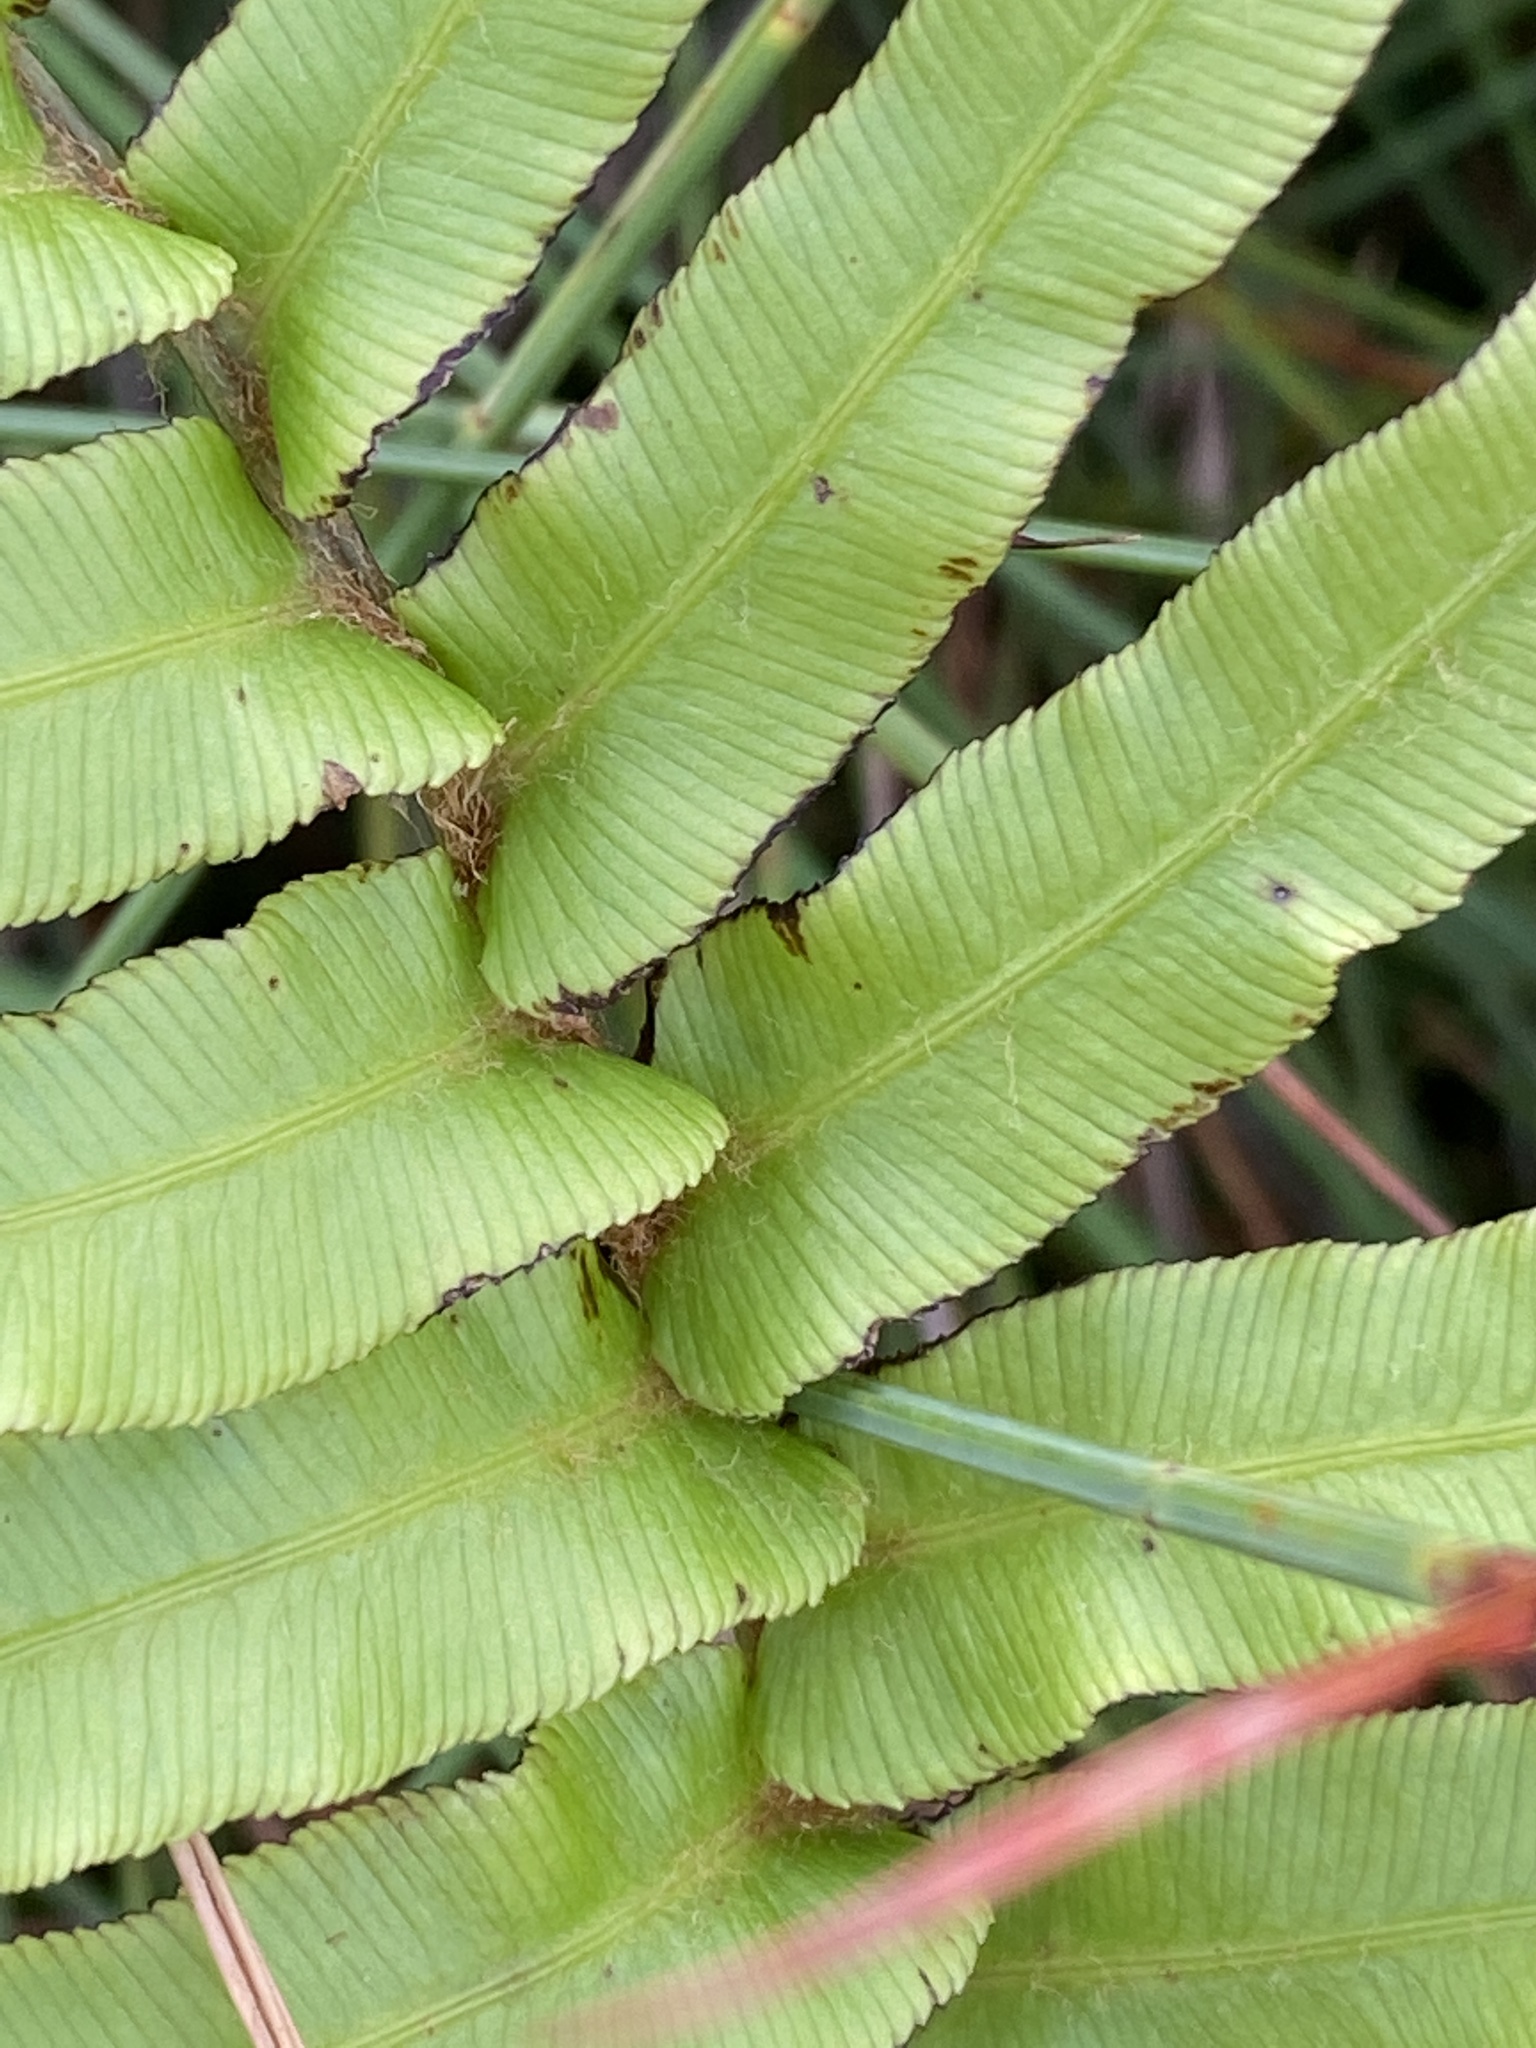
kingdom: Plantae
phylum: Tracheophyta
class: Polypodiopsida
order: Polypodiales
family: Blechnaceae
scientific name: Blechnaceae
